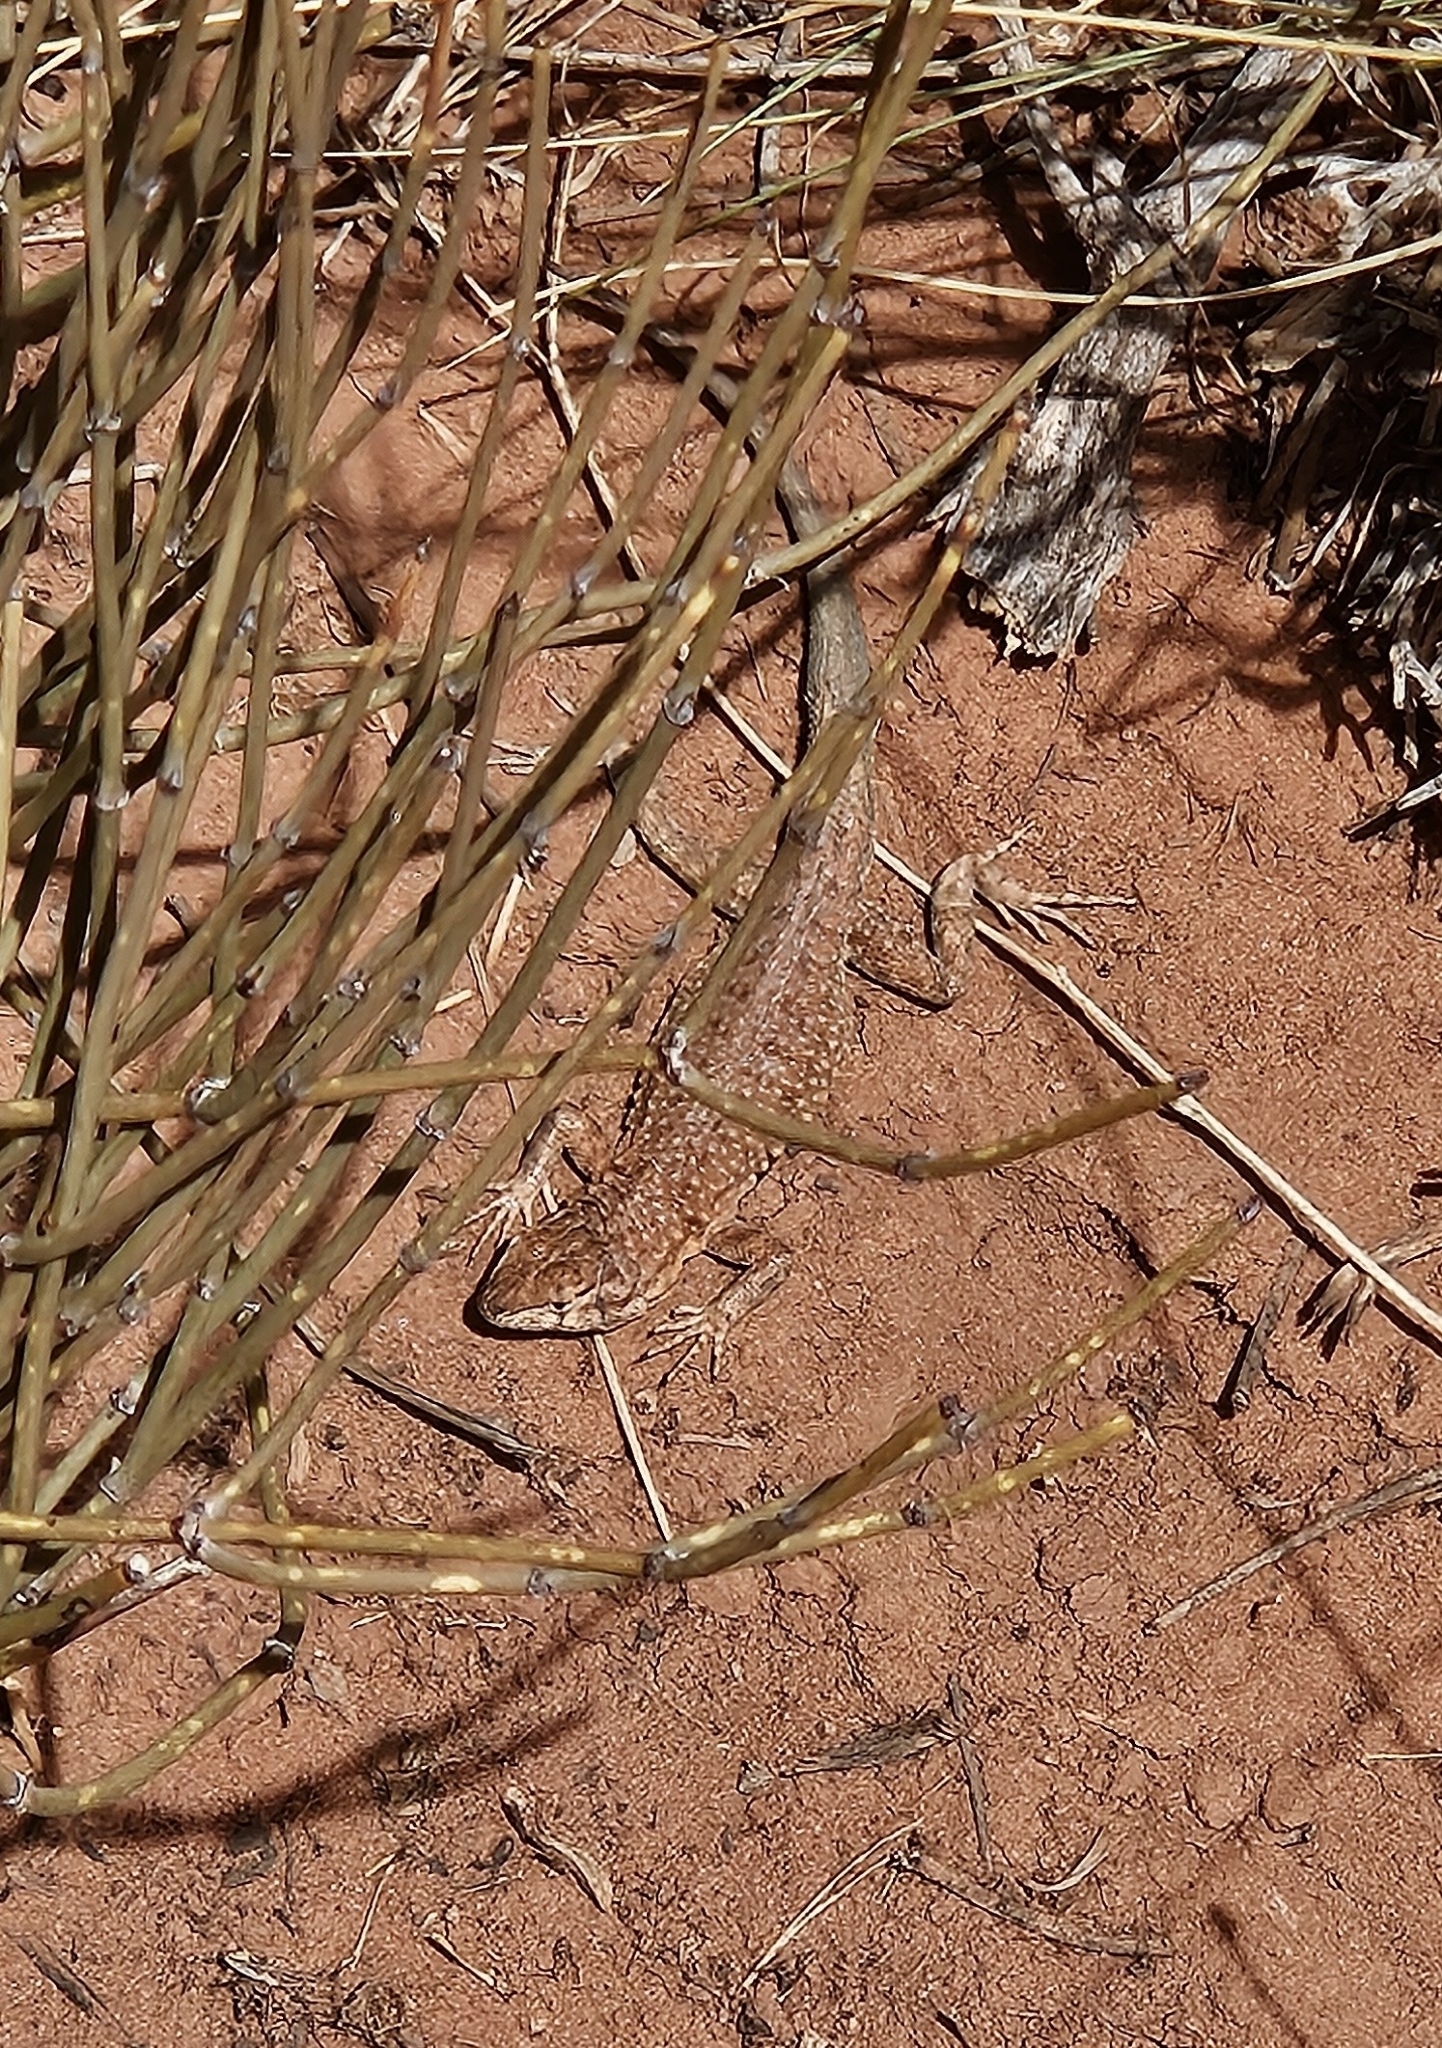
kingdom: Animalia
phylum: Chordata
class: Squamata
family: Phrynosomatidae
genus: Uta
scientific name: Uta stansburiana
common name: Side-blotched lizard
